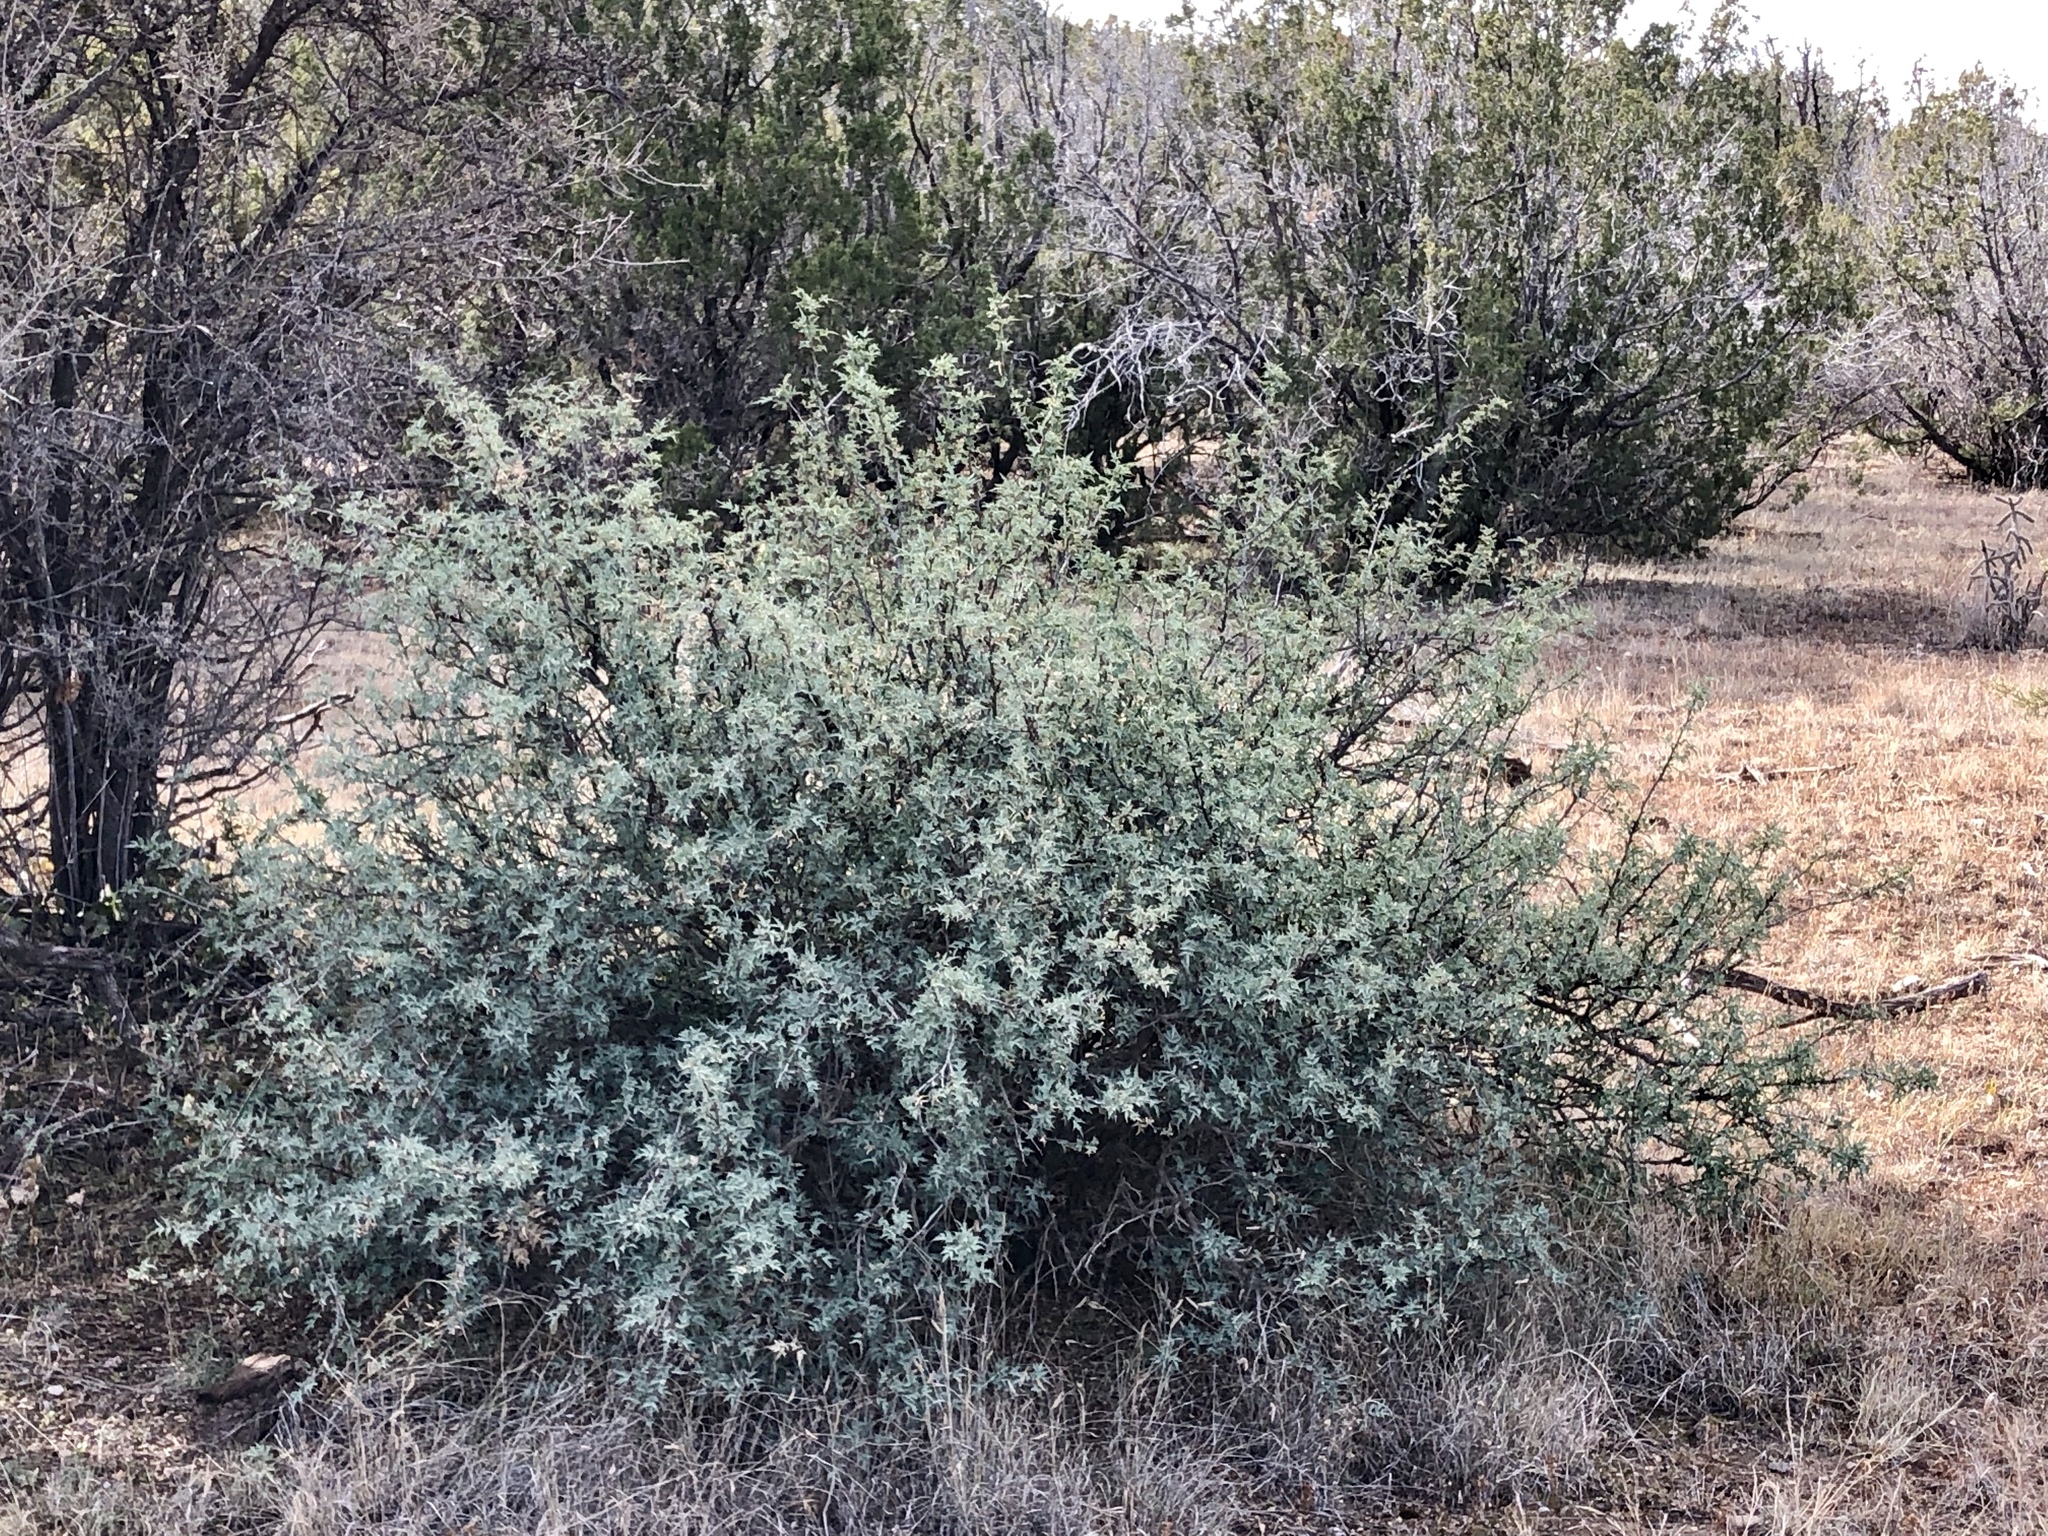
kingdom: Plantae
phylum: Tracheophyta
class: Magnoliopsida
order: Ranunculales
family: Berberidaceae
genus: Alloberberis
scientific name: Alloberberis haematocarpa
